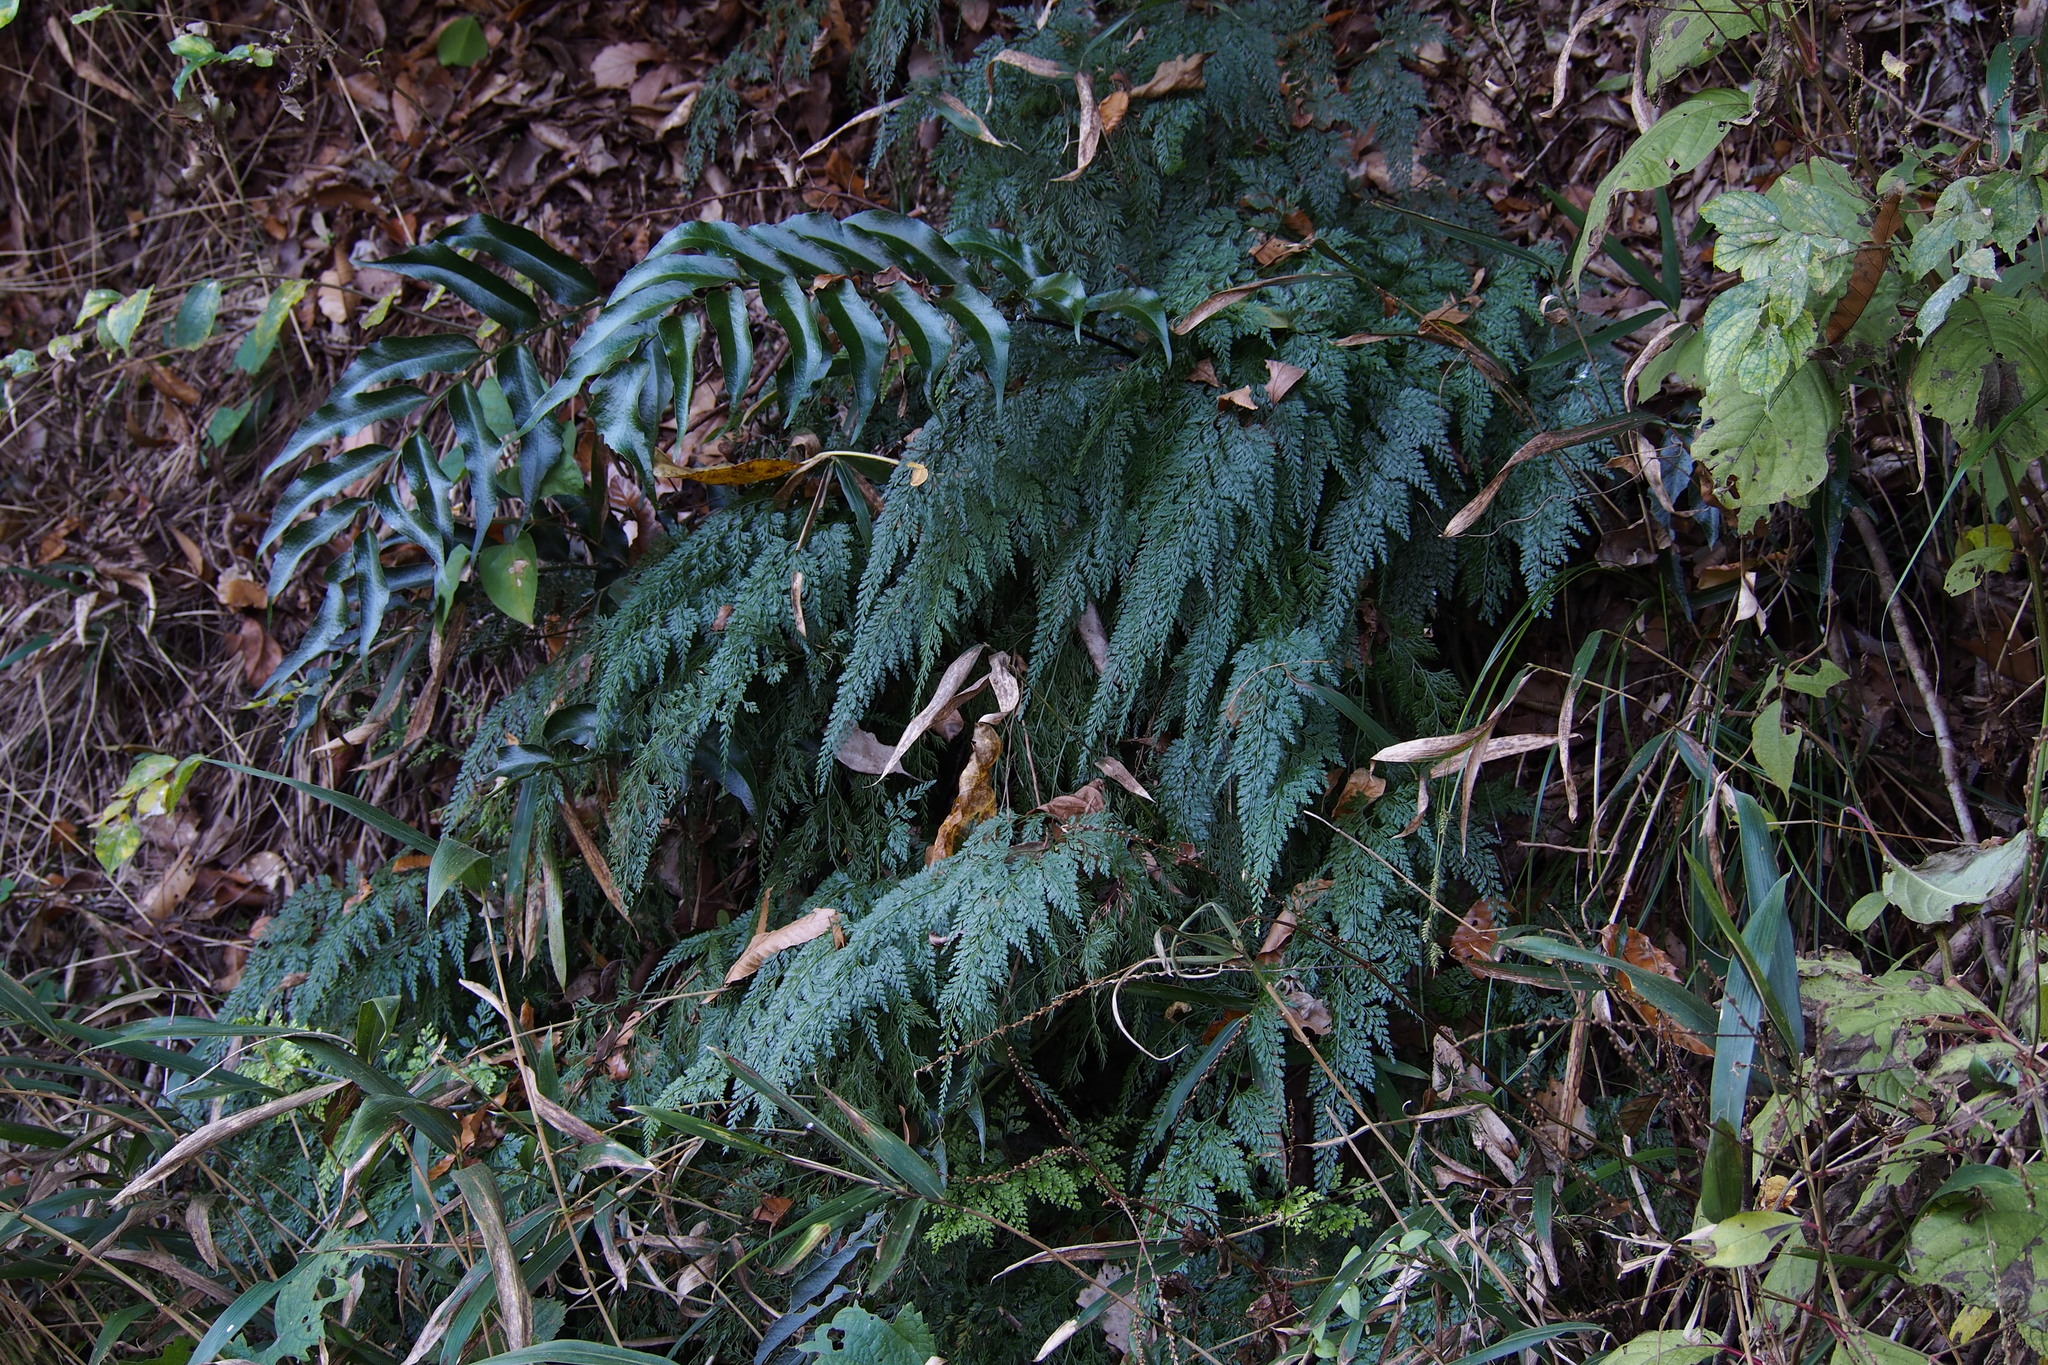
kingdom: Plantae
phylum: Tracheophyta
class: Polypodiopsida
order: Polypodiales
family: Pteridaceae
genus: Onychium
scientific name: Onychium japonicum
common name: Carrot fern
